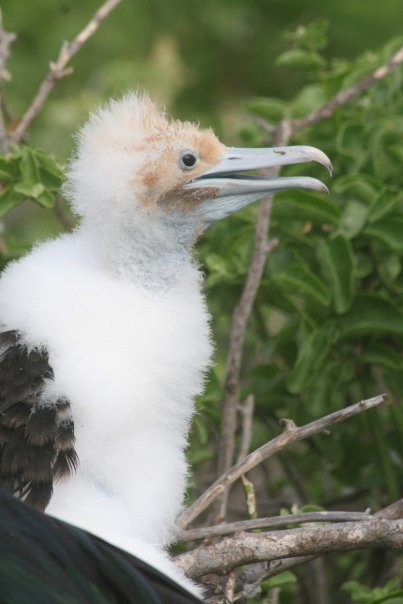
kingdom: Animalia
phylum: Chordata
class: Aves
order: Suliformes
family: Fregatidae
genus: Fregata
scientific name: Fregata magnificens
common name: Magnificent frigatebird
